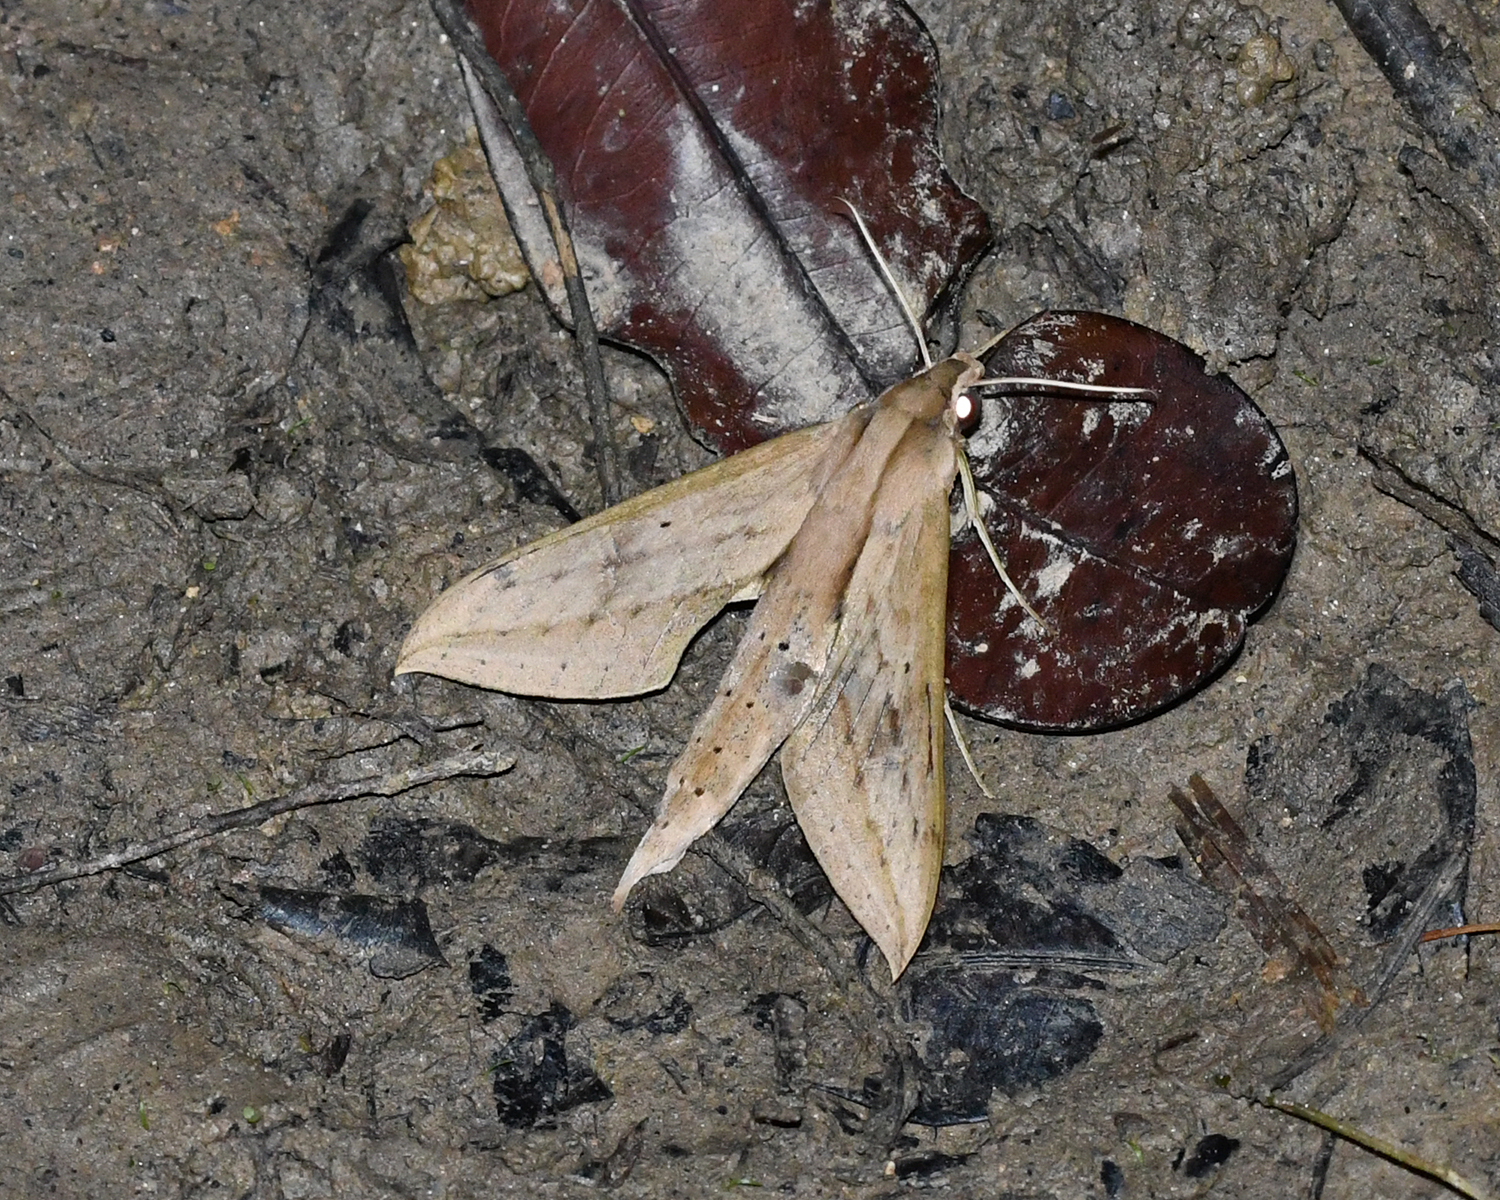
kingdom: Animalia
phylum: Arthropoda
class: Insecta
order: Lepidoptera
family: Sphingidae
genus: Xylophanes
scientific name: Xylophanes anubus
